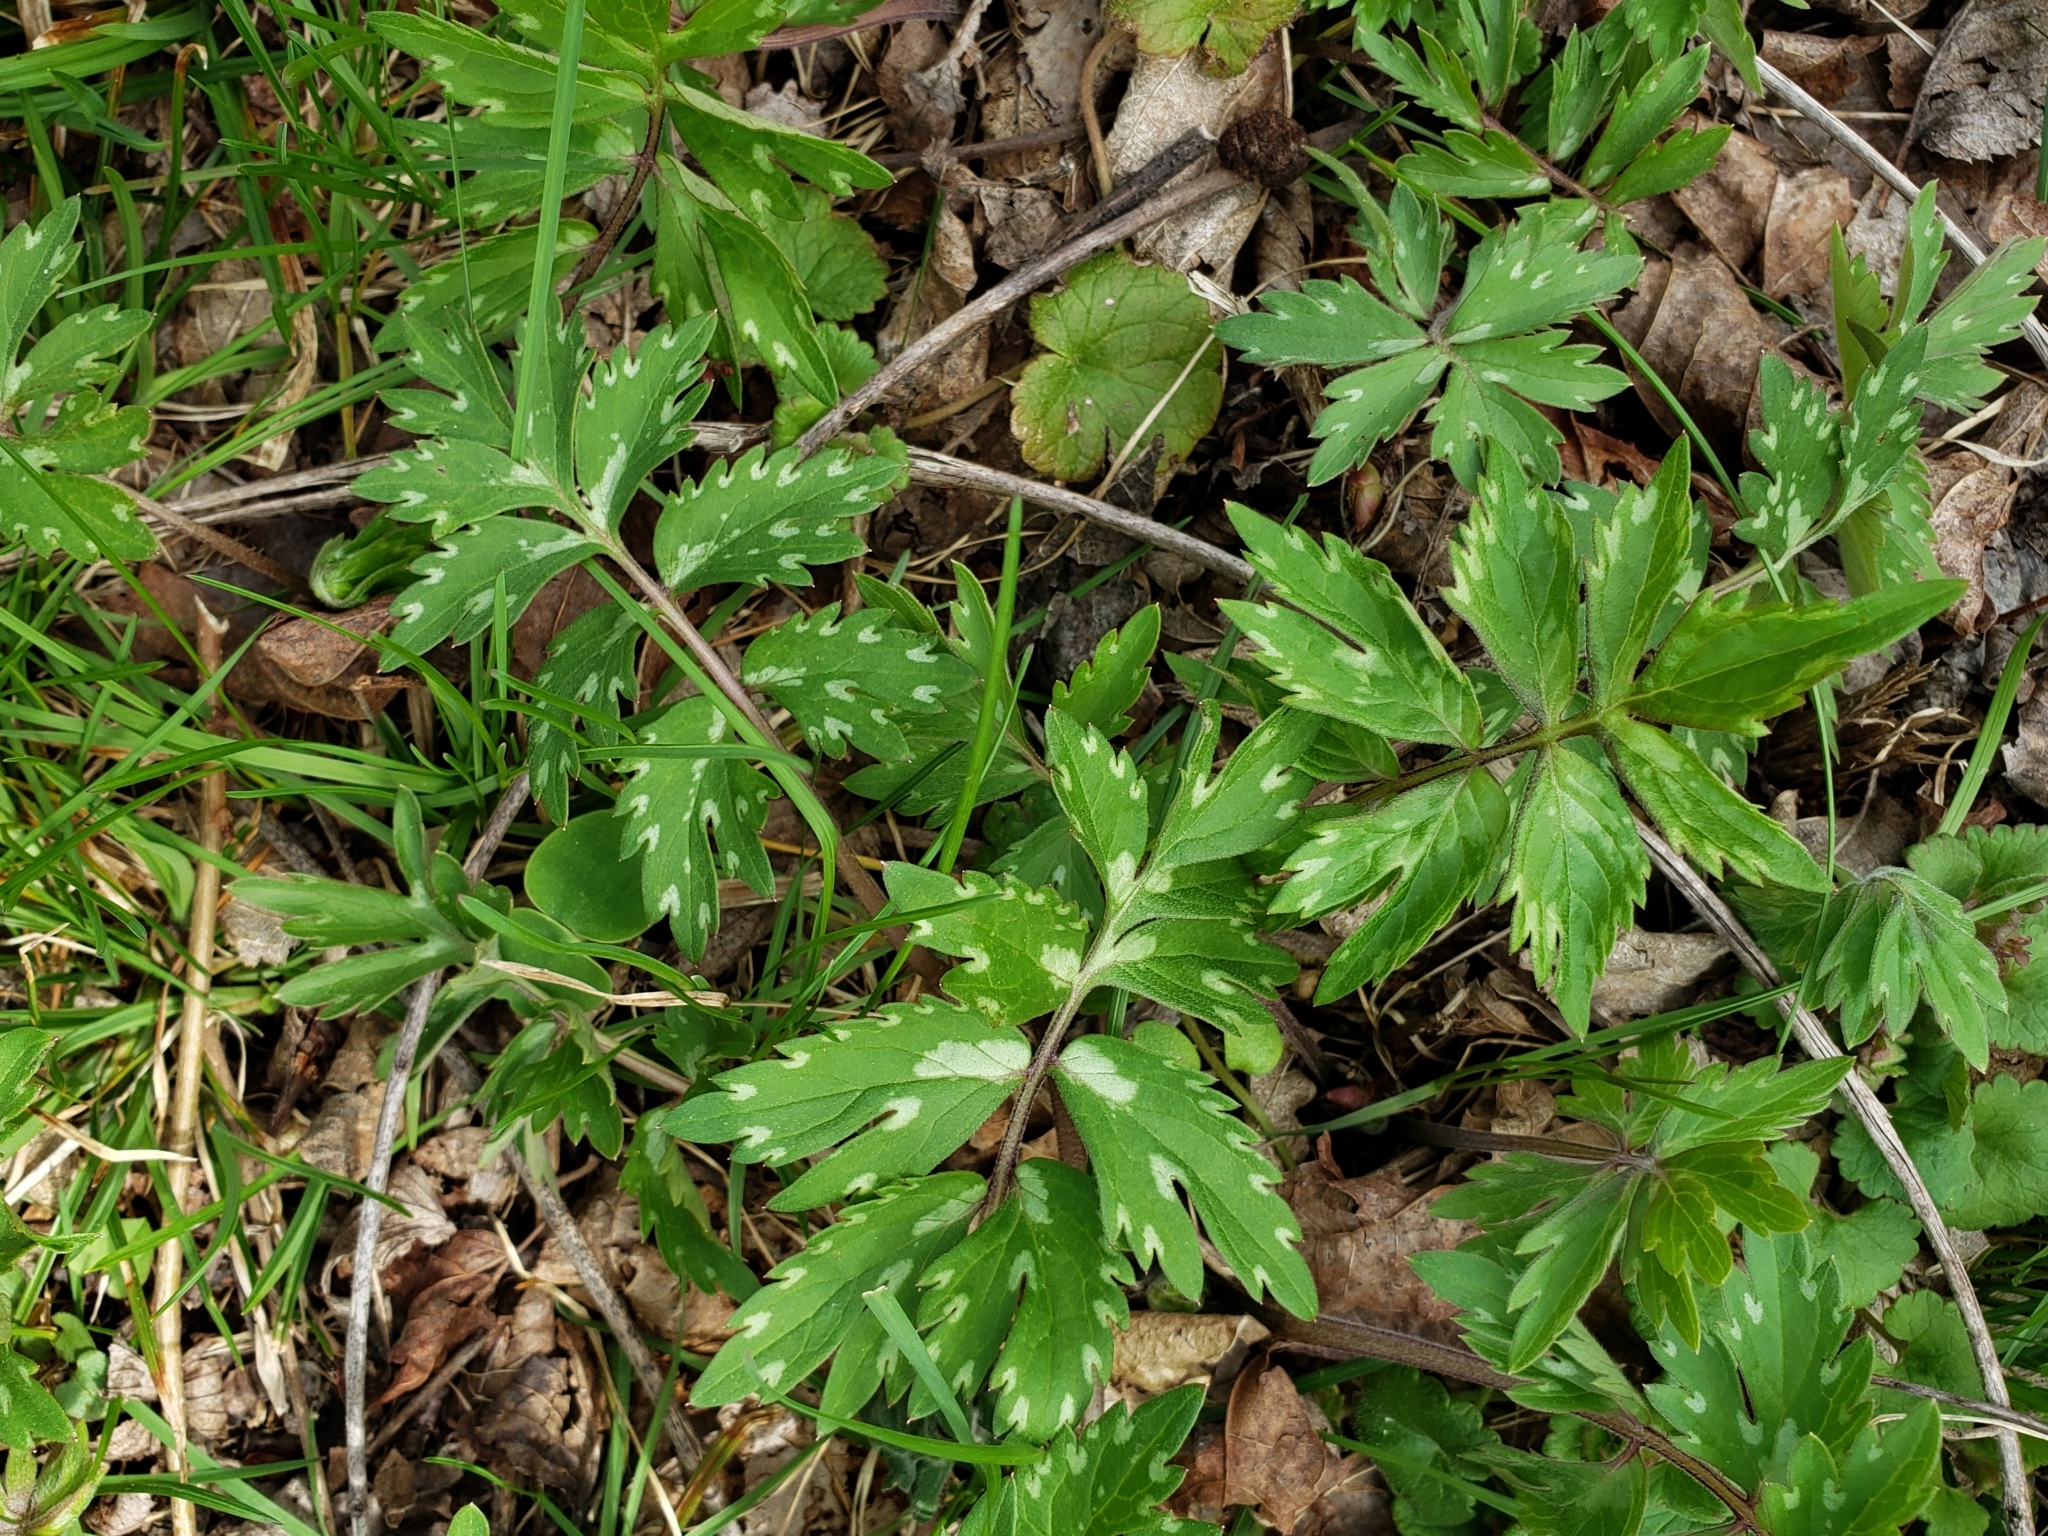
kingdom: Plantae
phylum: Tracheophyta
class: Magnoliopsida
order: Boraginales
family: Hydrophyllaceae
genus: Hydrophyllum
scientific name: Hydrophyllum virginianum
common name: Virginia waterleaf
